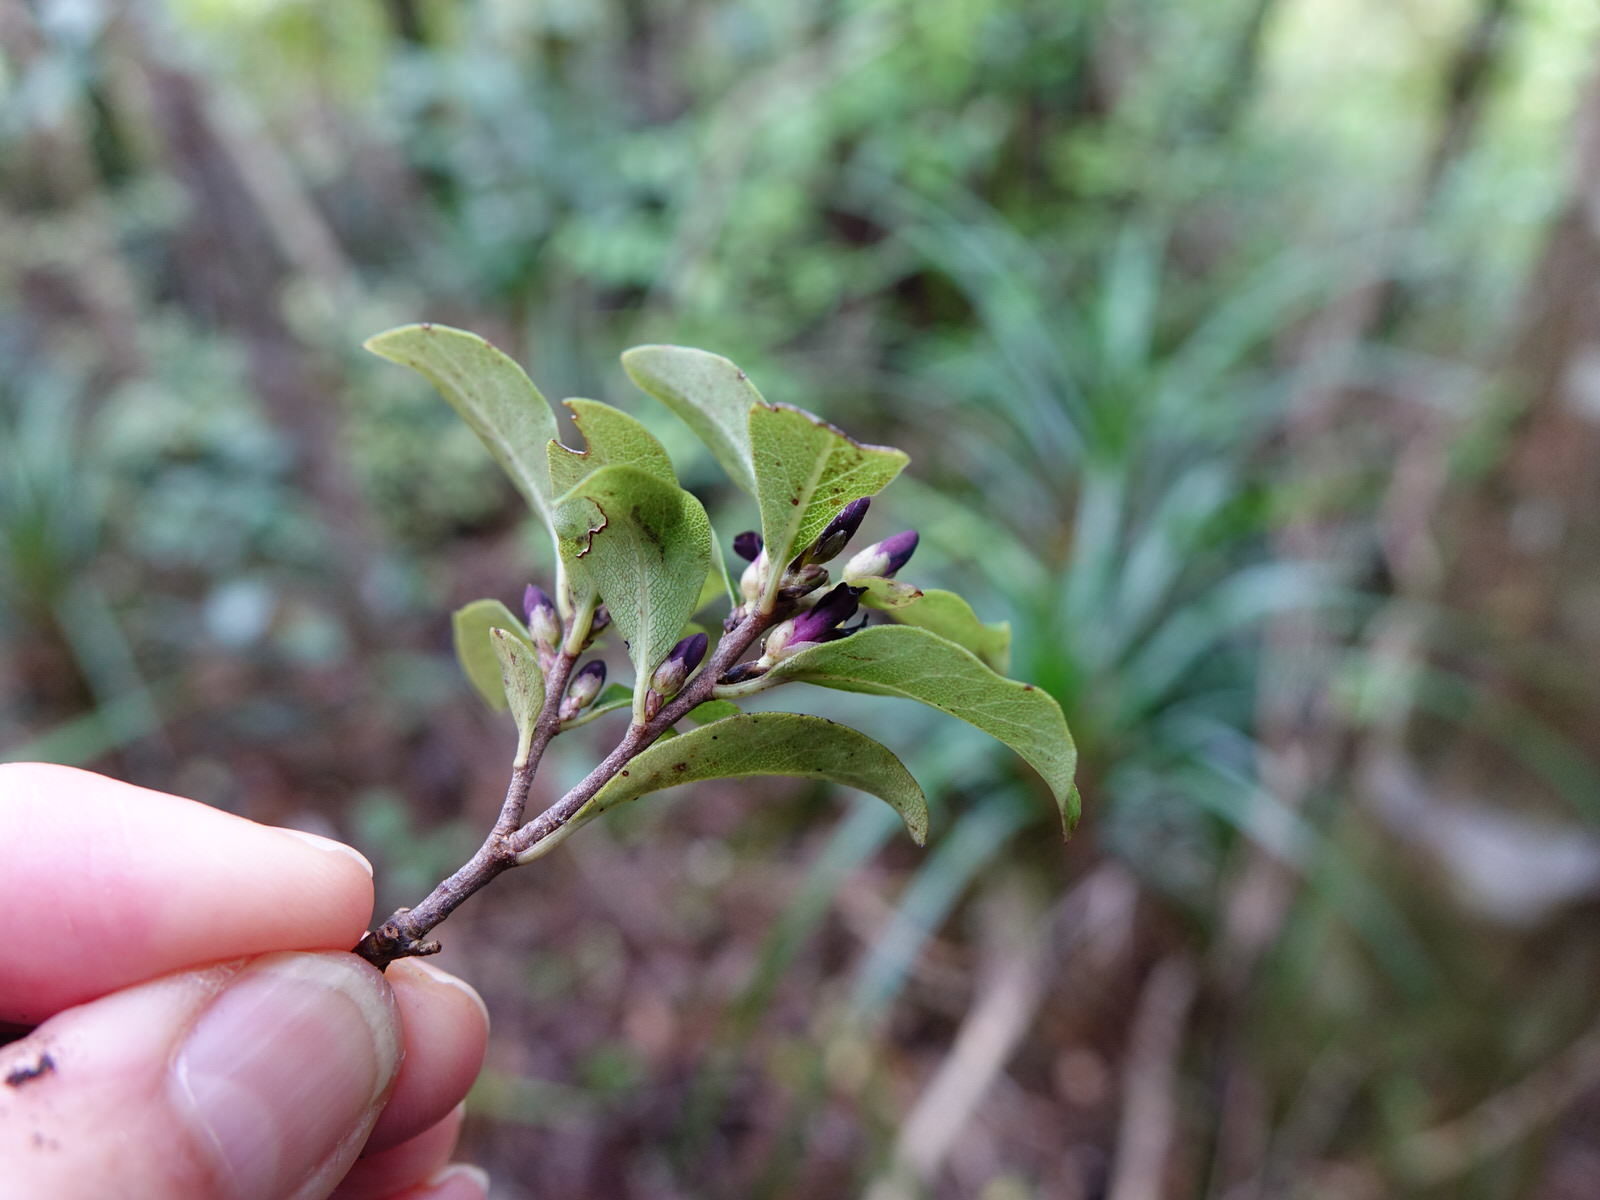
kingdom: Plantae
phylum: Tracheophyta
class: Magnoliopsida
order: Apiales
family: Pittosporaceae
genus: Pittosporum
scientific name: Pittosporum tenuifolium
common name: Kohuhu
